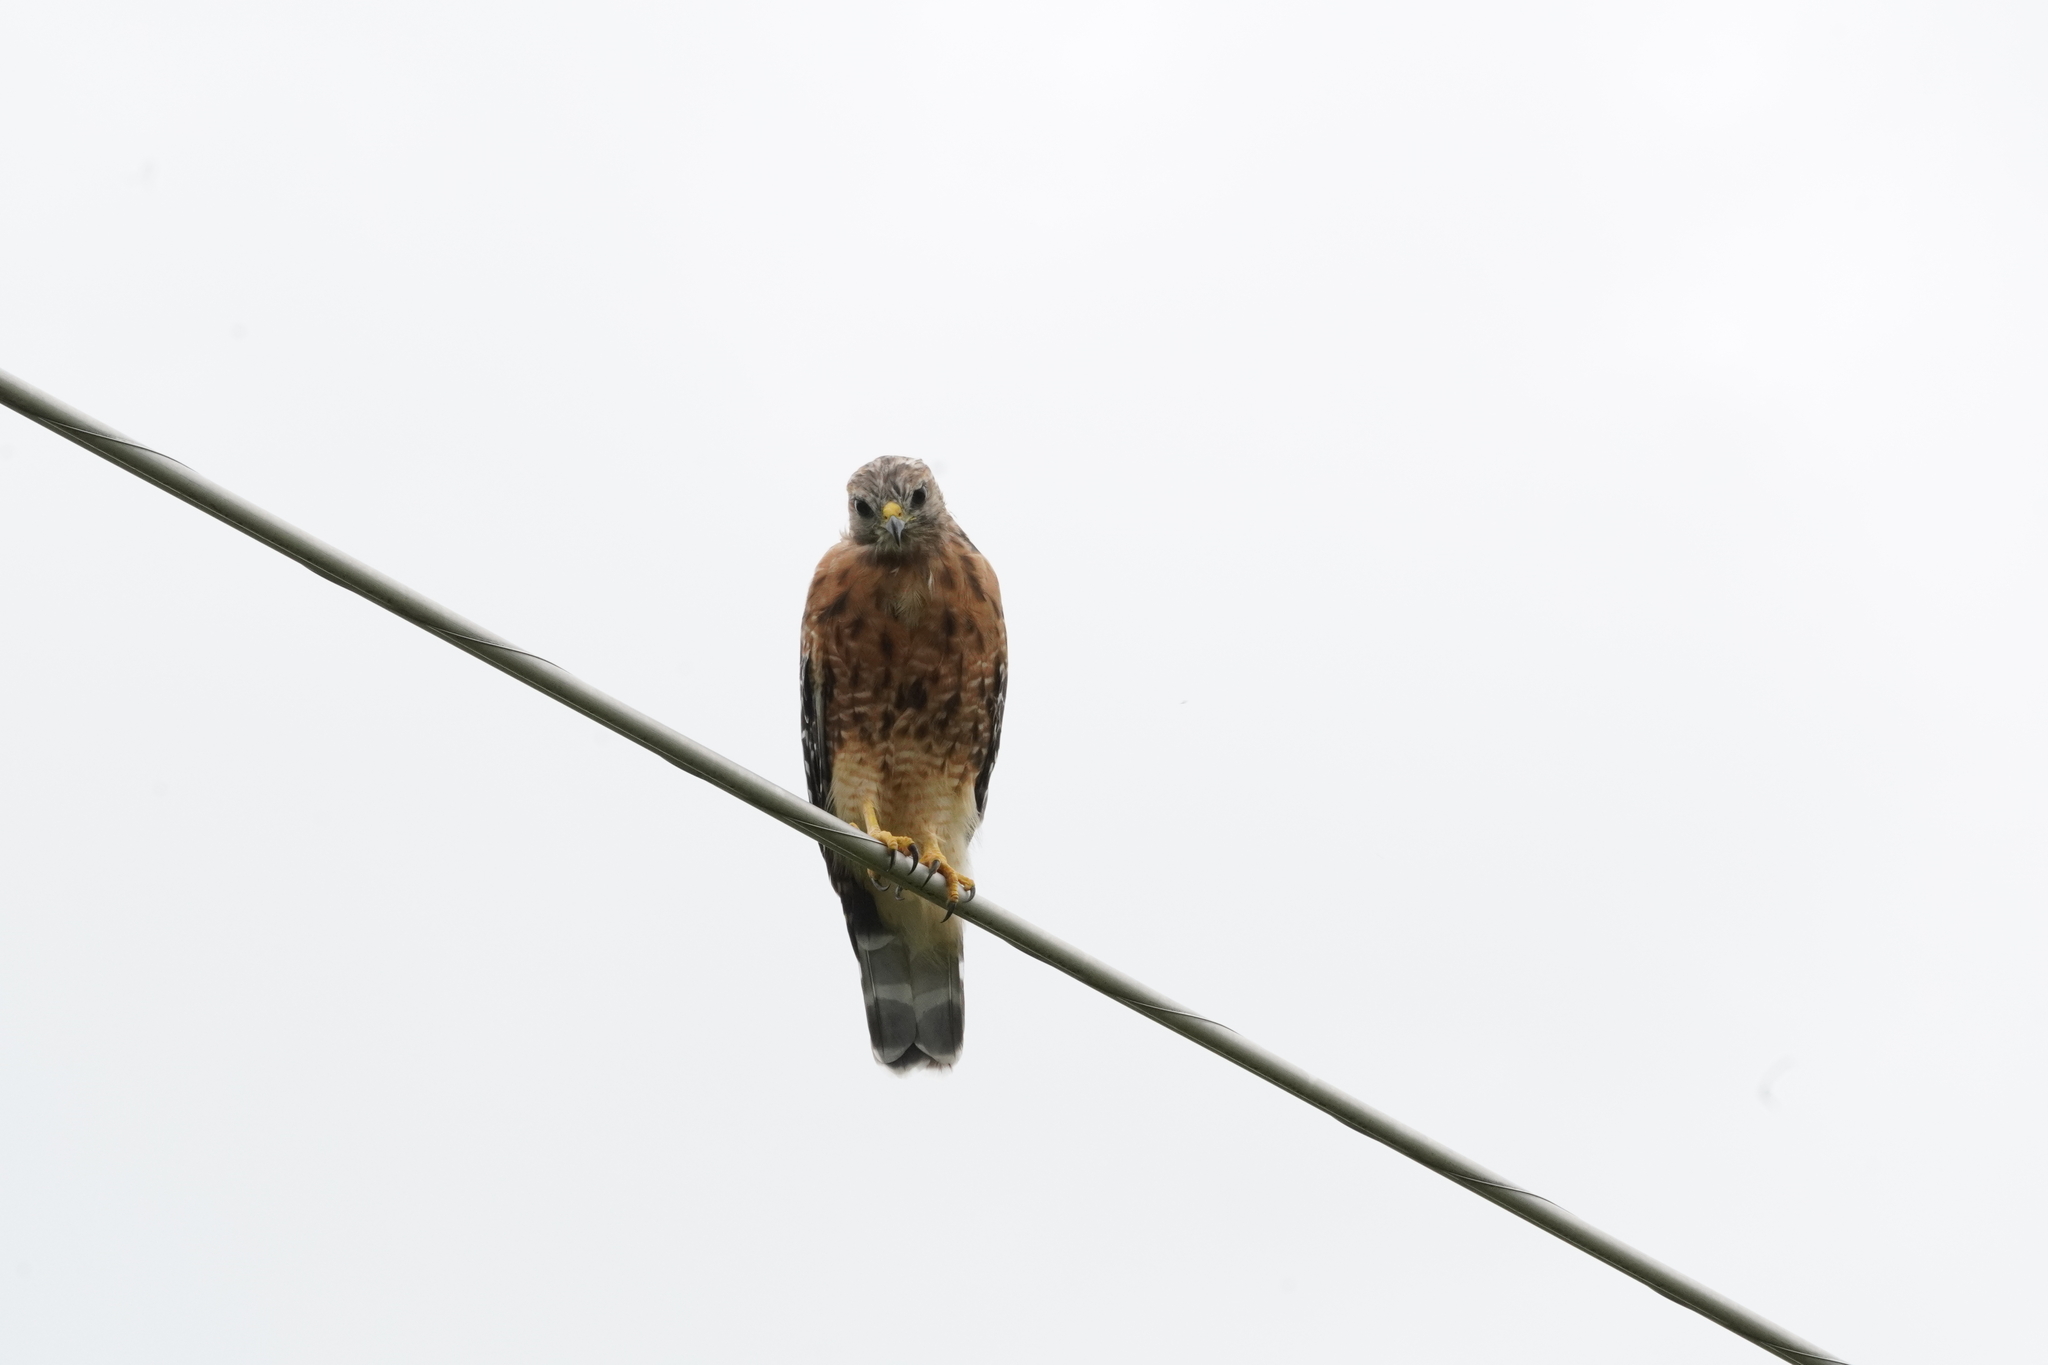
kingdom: Animalia
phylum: Chordata
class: Aves
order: Accipitriformes
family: Accipitridae
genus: Buteo
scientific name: Buteo lineatus
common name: Red-shouldered hawk
